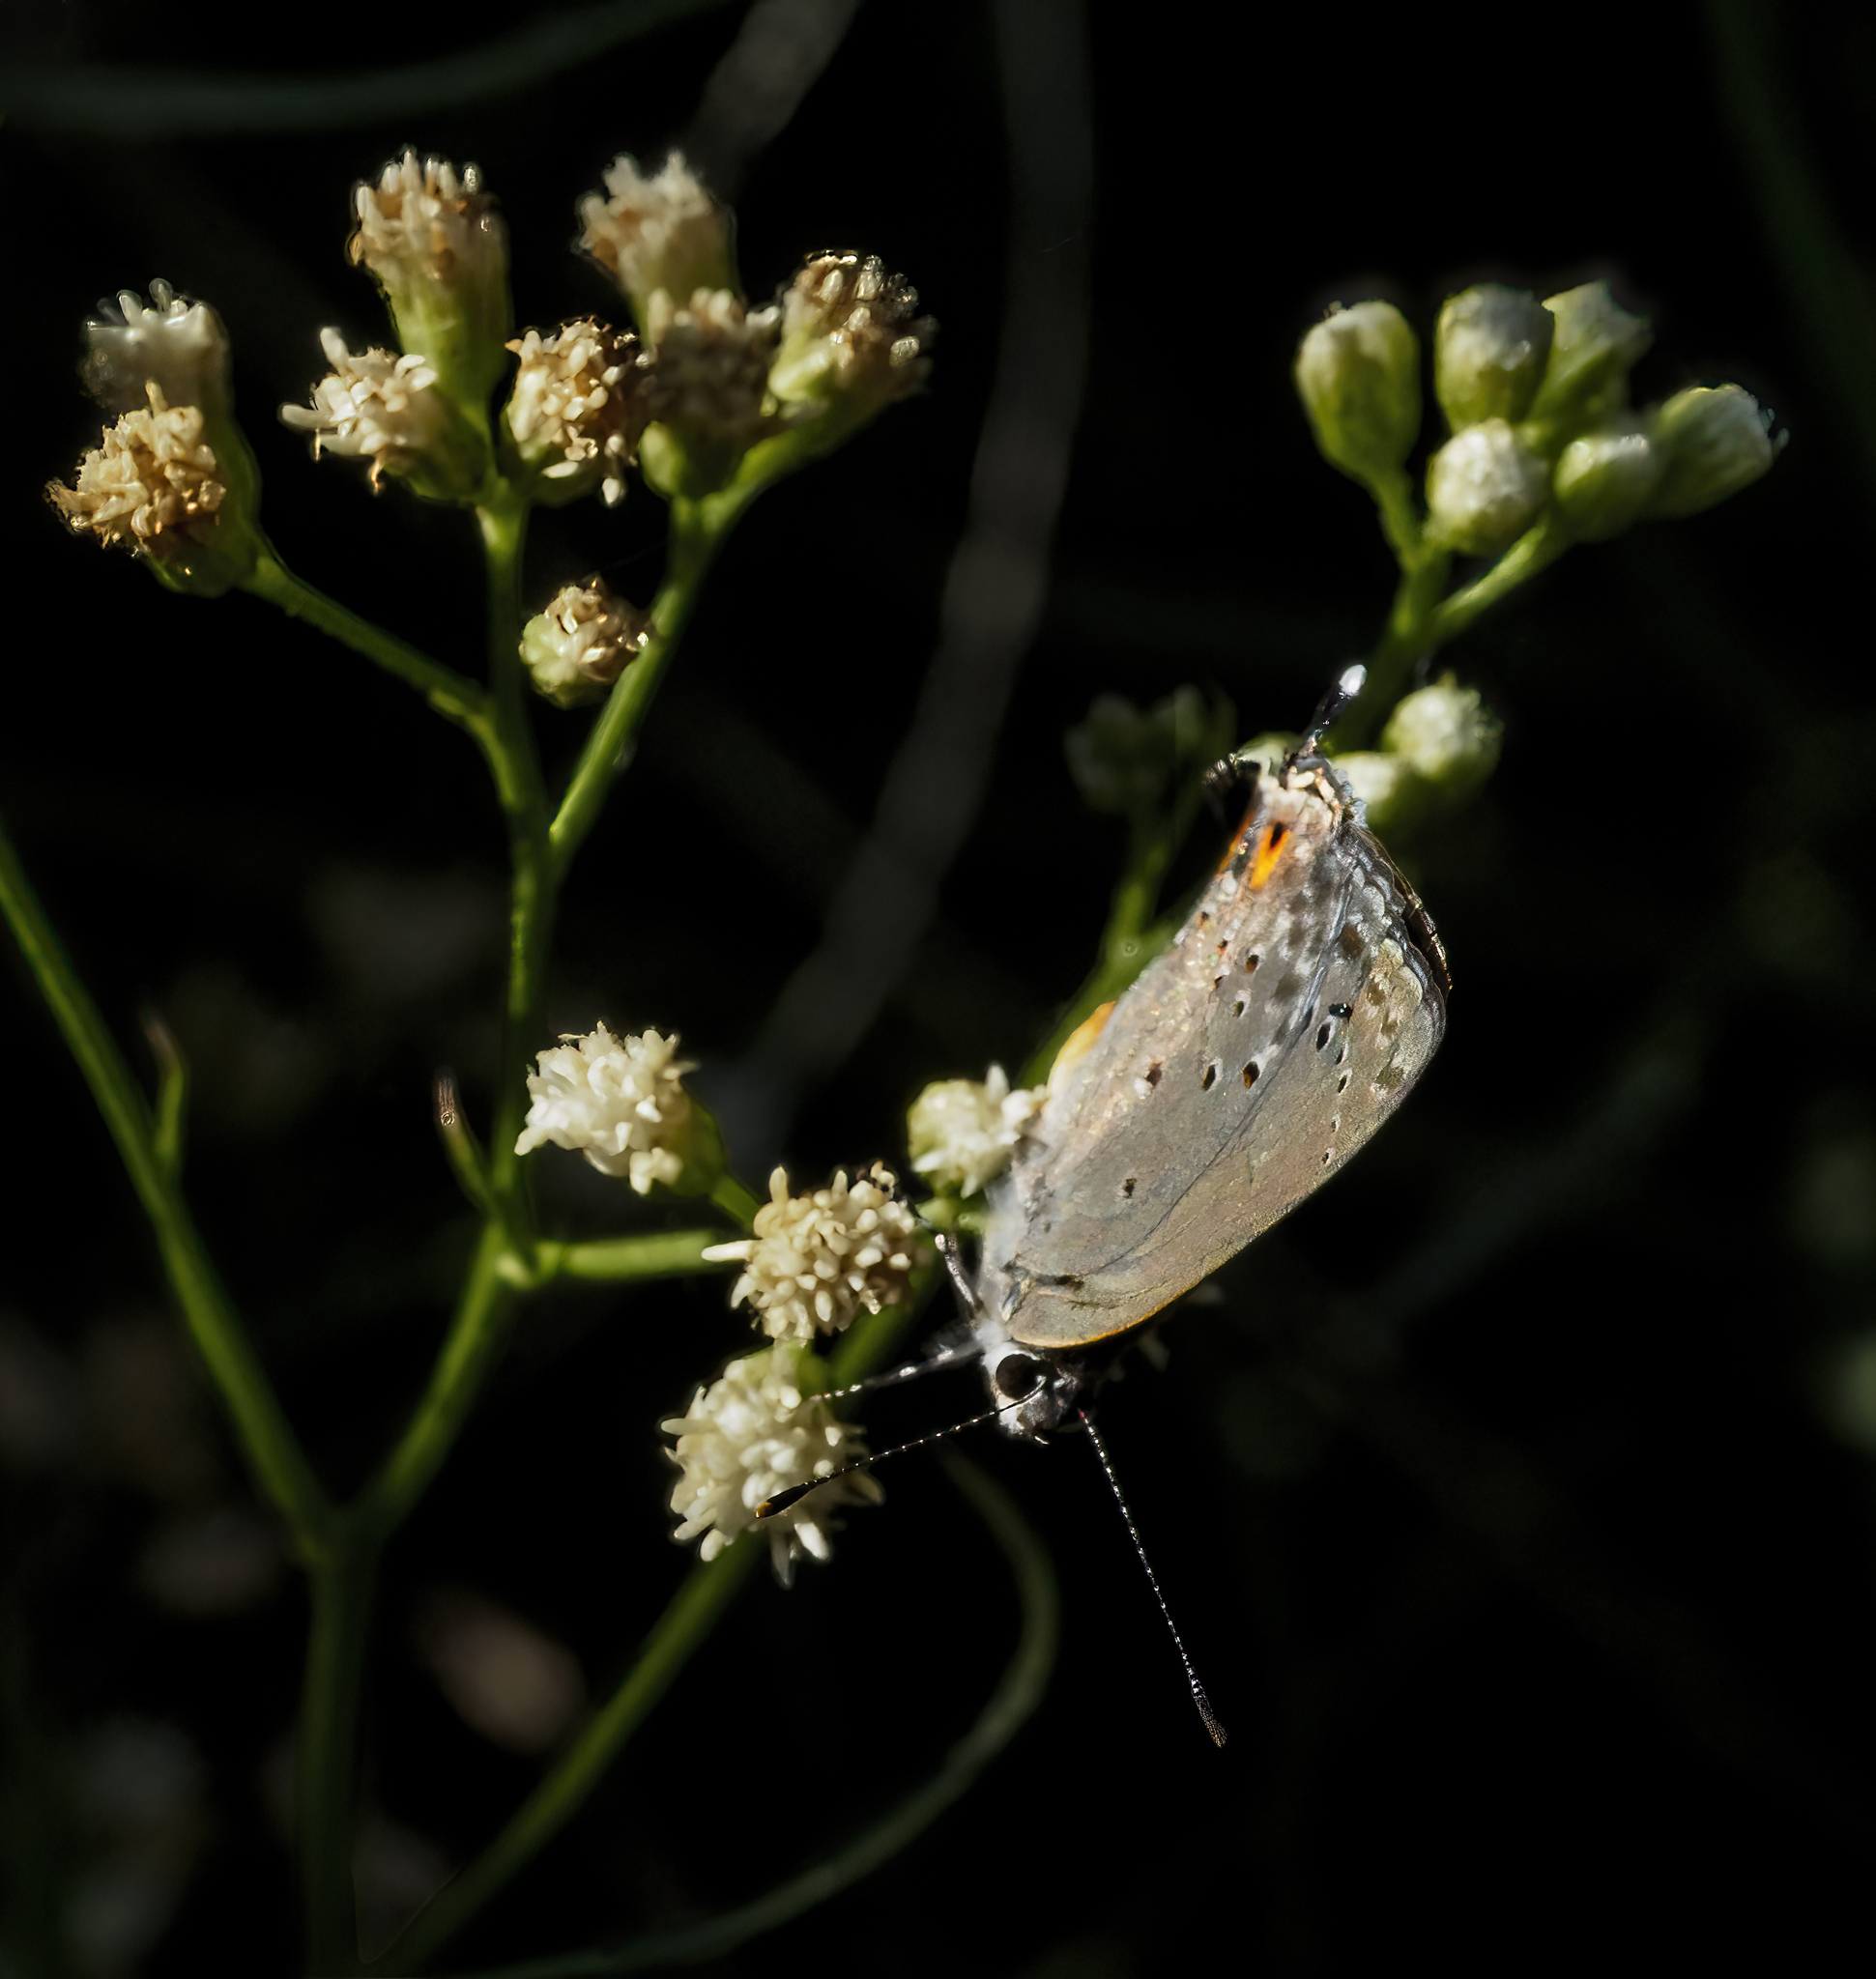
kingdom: Animalia
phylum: Arthropoda
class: Insecta
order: Lepidoptera
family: Lycaenidae
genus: Strymon
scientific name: Strymon eurytulus
